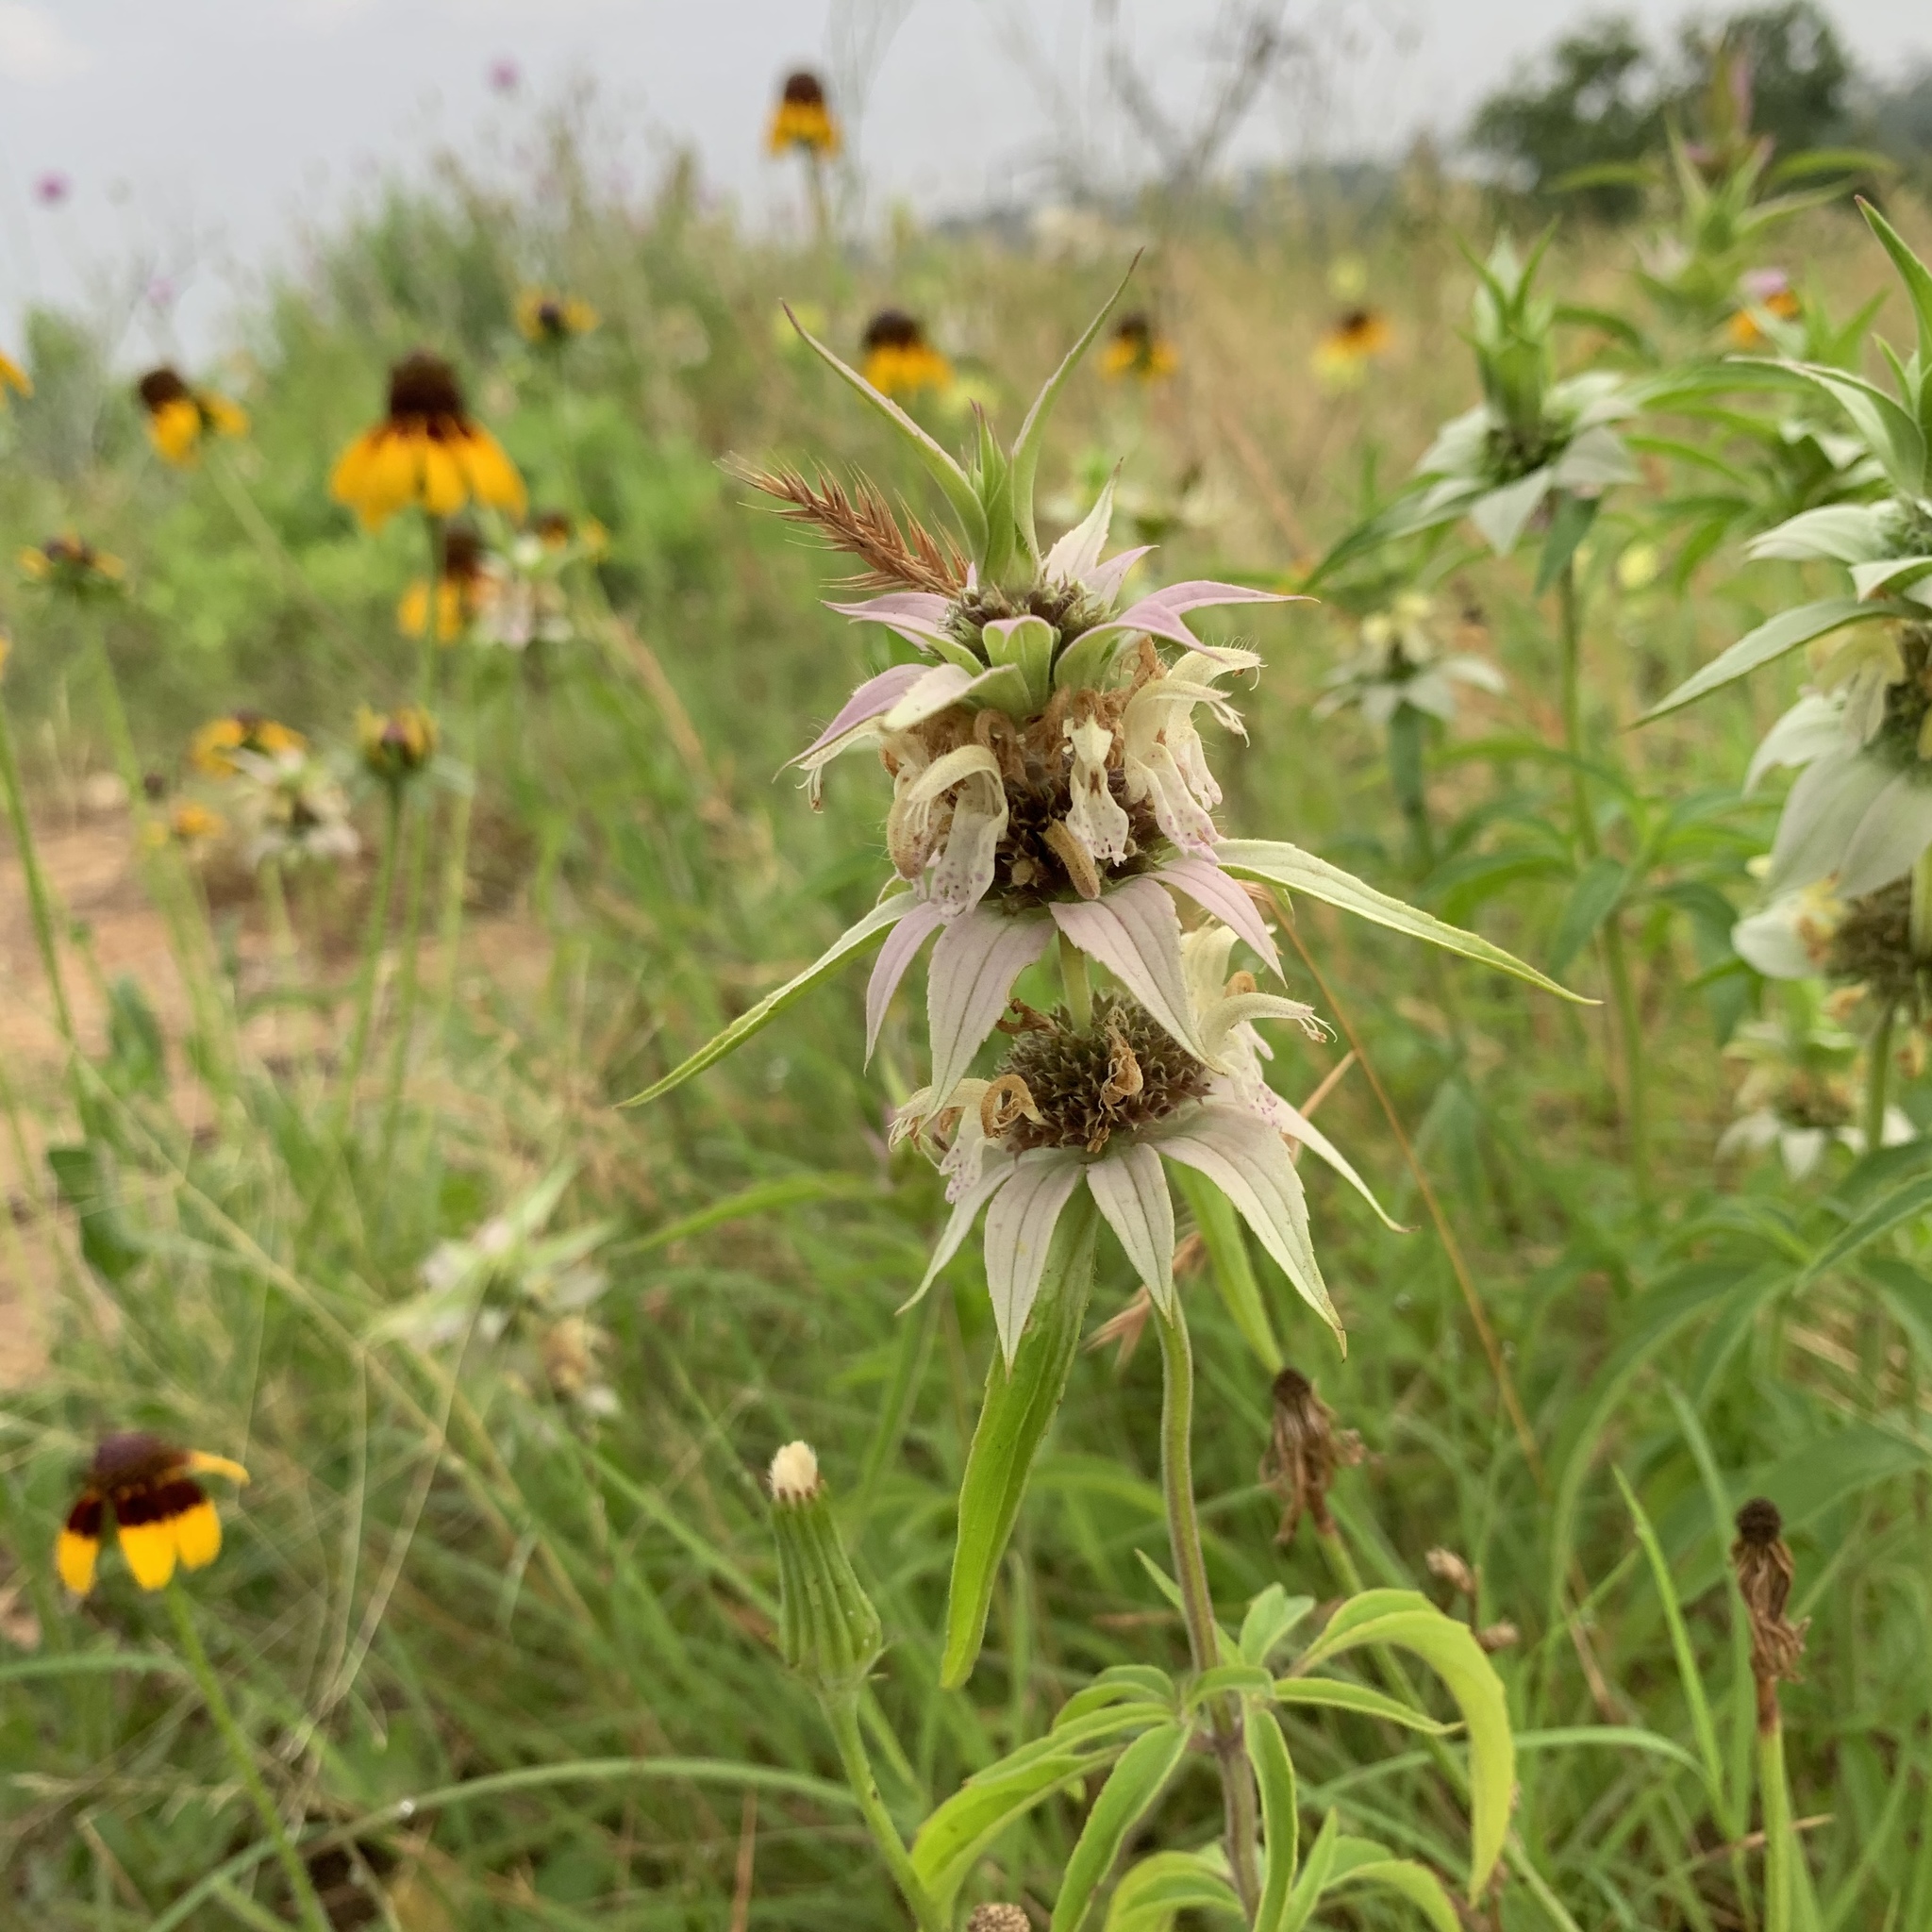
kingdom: Plantae
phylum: Tracheophyta
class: Magnoliopsida
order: Lamiales
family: Lamiaceae
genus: Monarda
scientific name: Monarda punctata
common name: Dotted monarda
